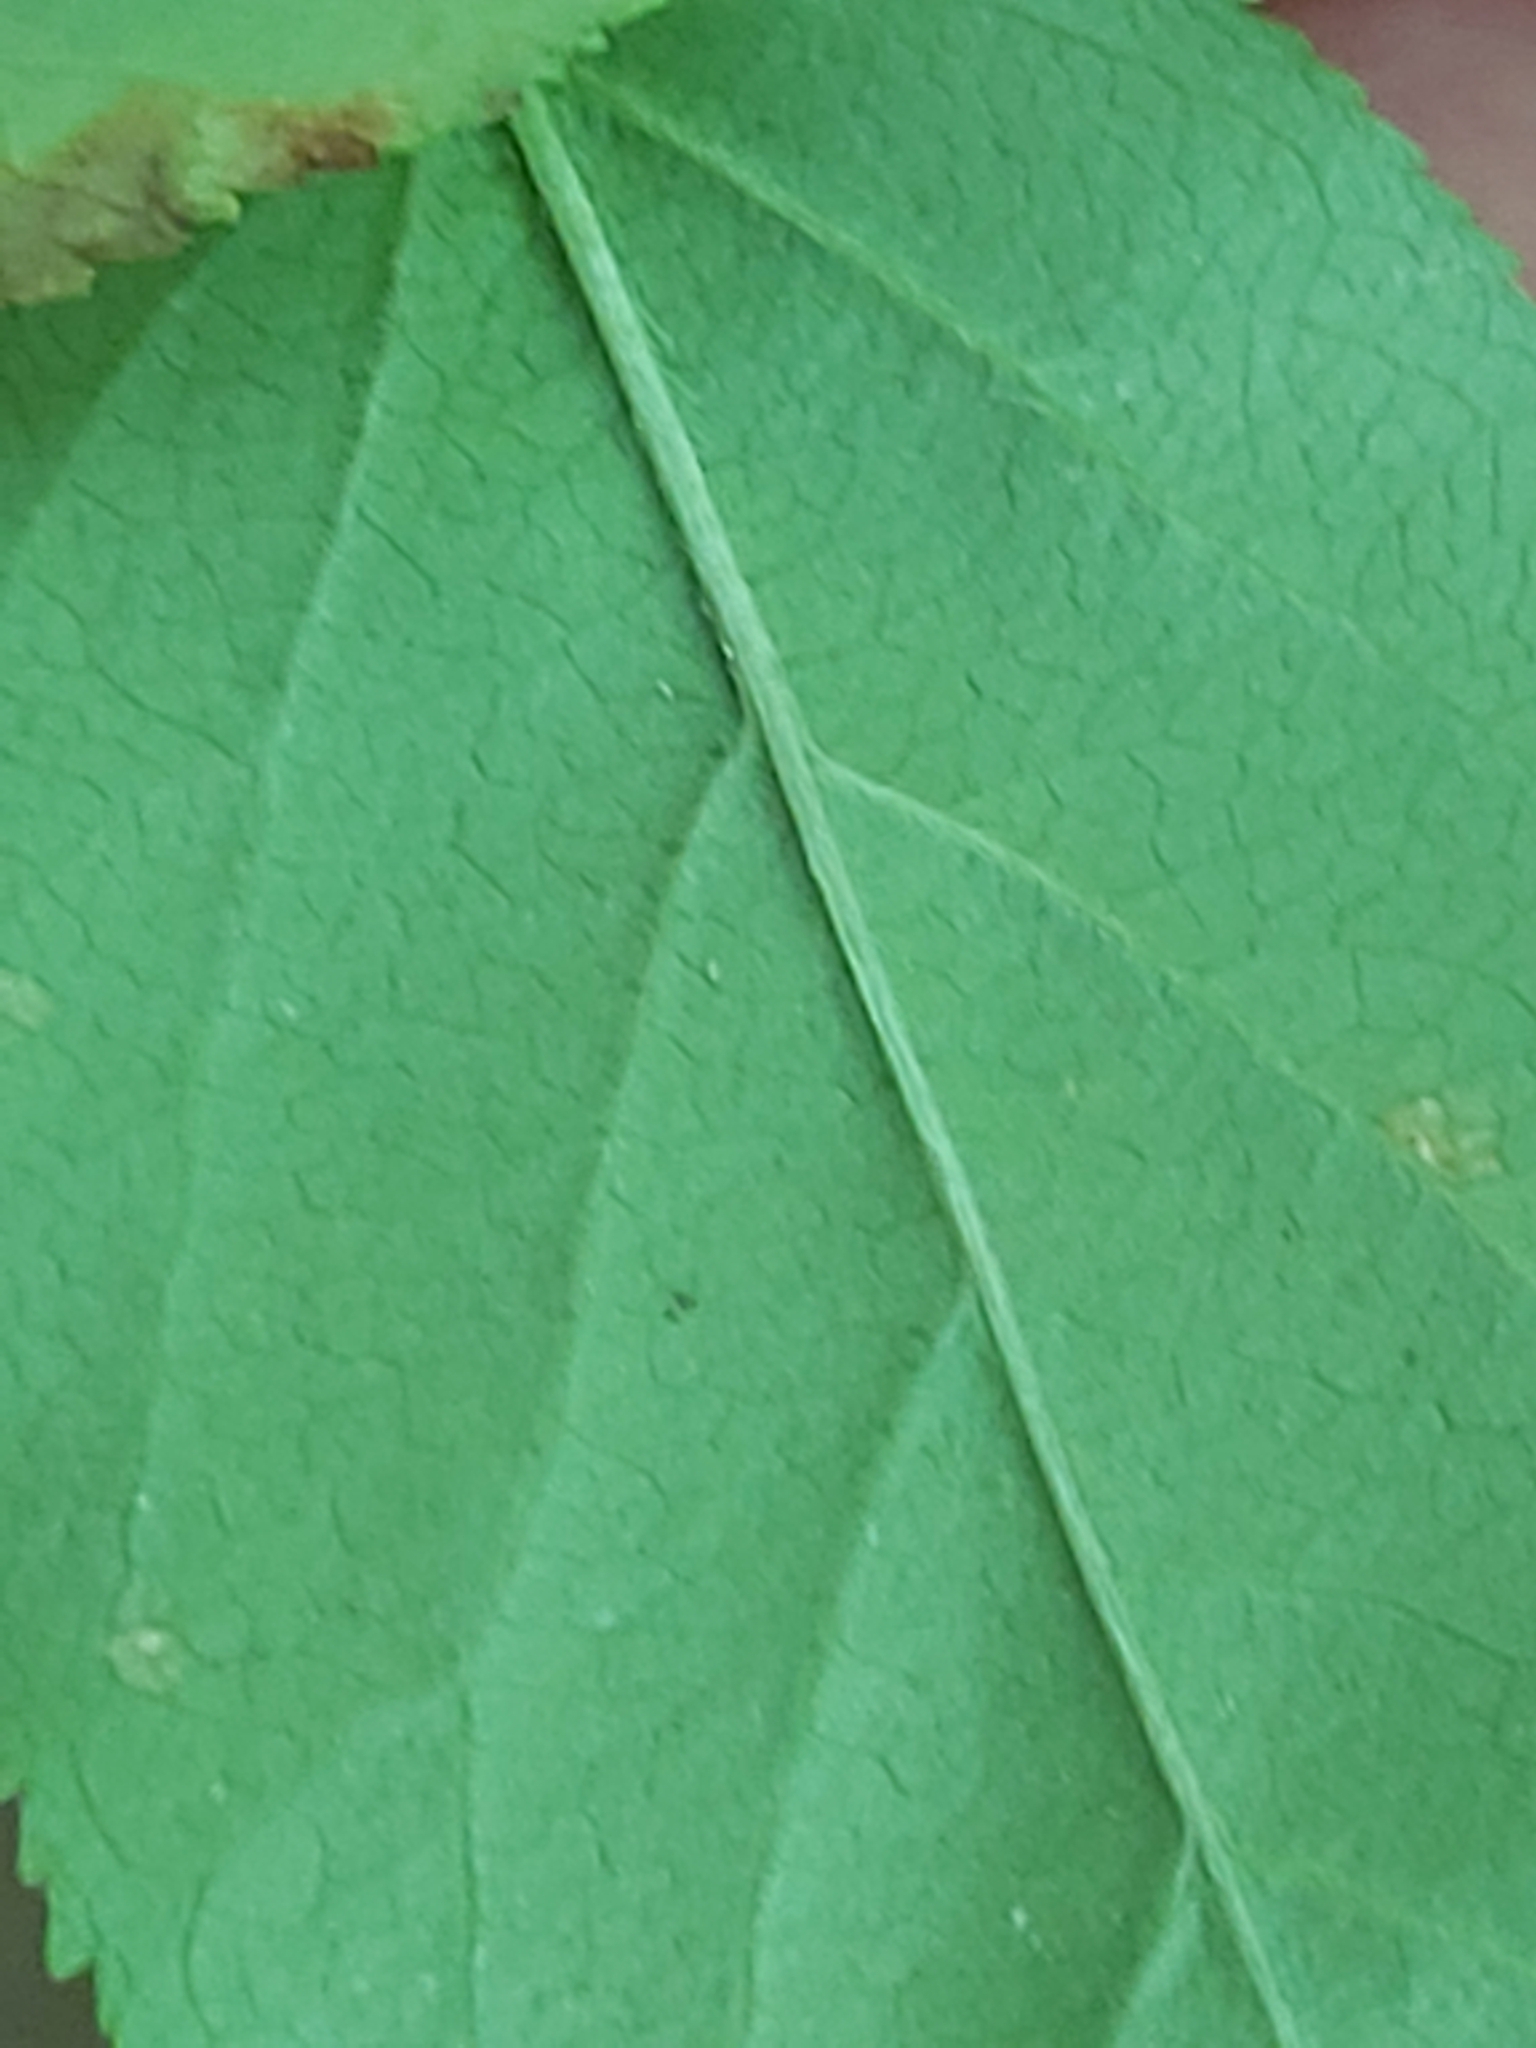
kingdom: Plantae
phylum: Tracheophyta
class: Magnoliopsida
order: Rosales
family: Rosaceae
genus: Malus
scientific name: Malus sylvestris
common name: Crab apple
